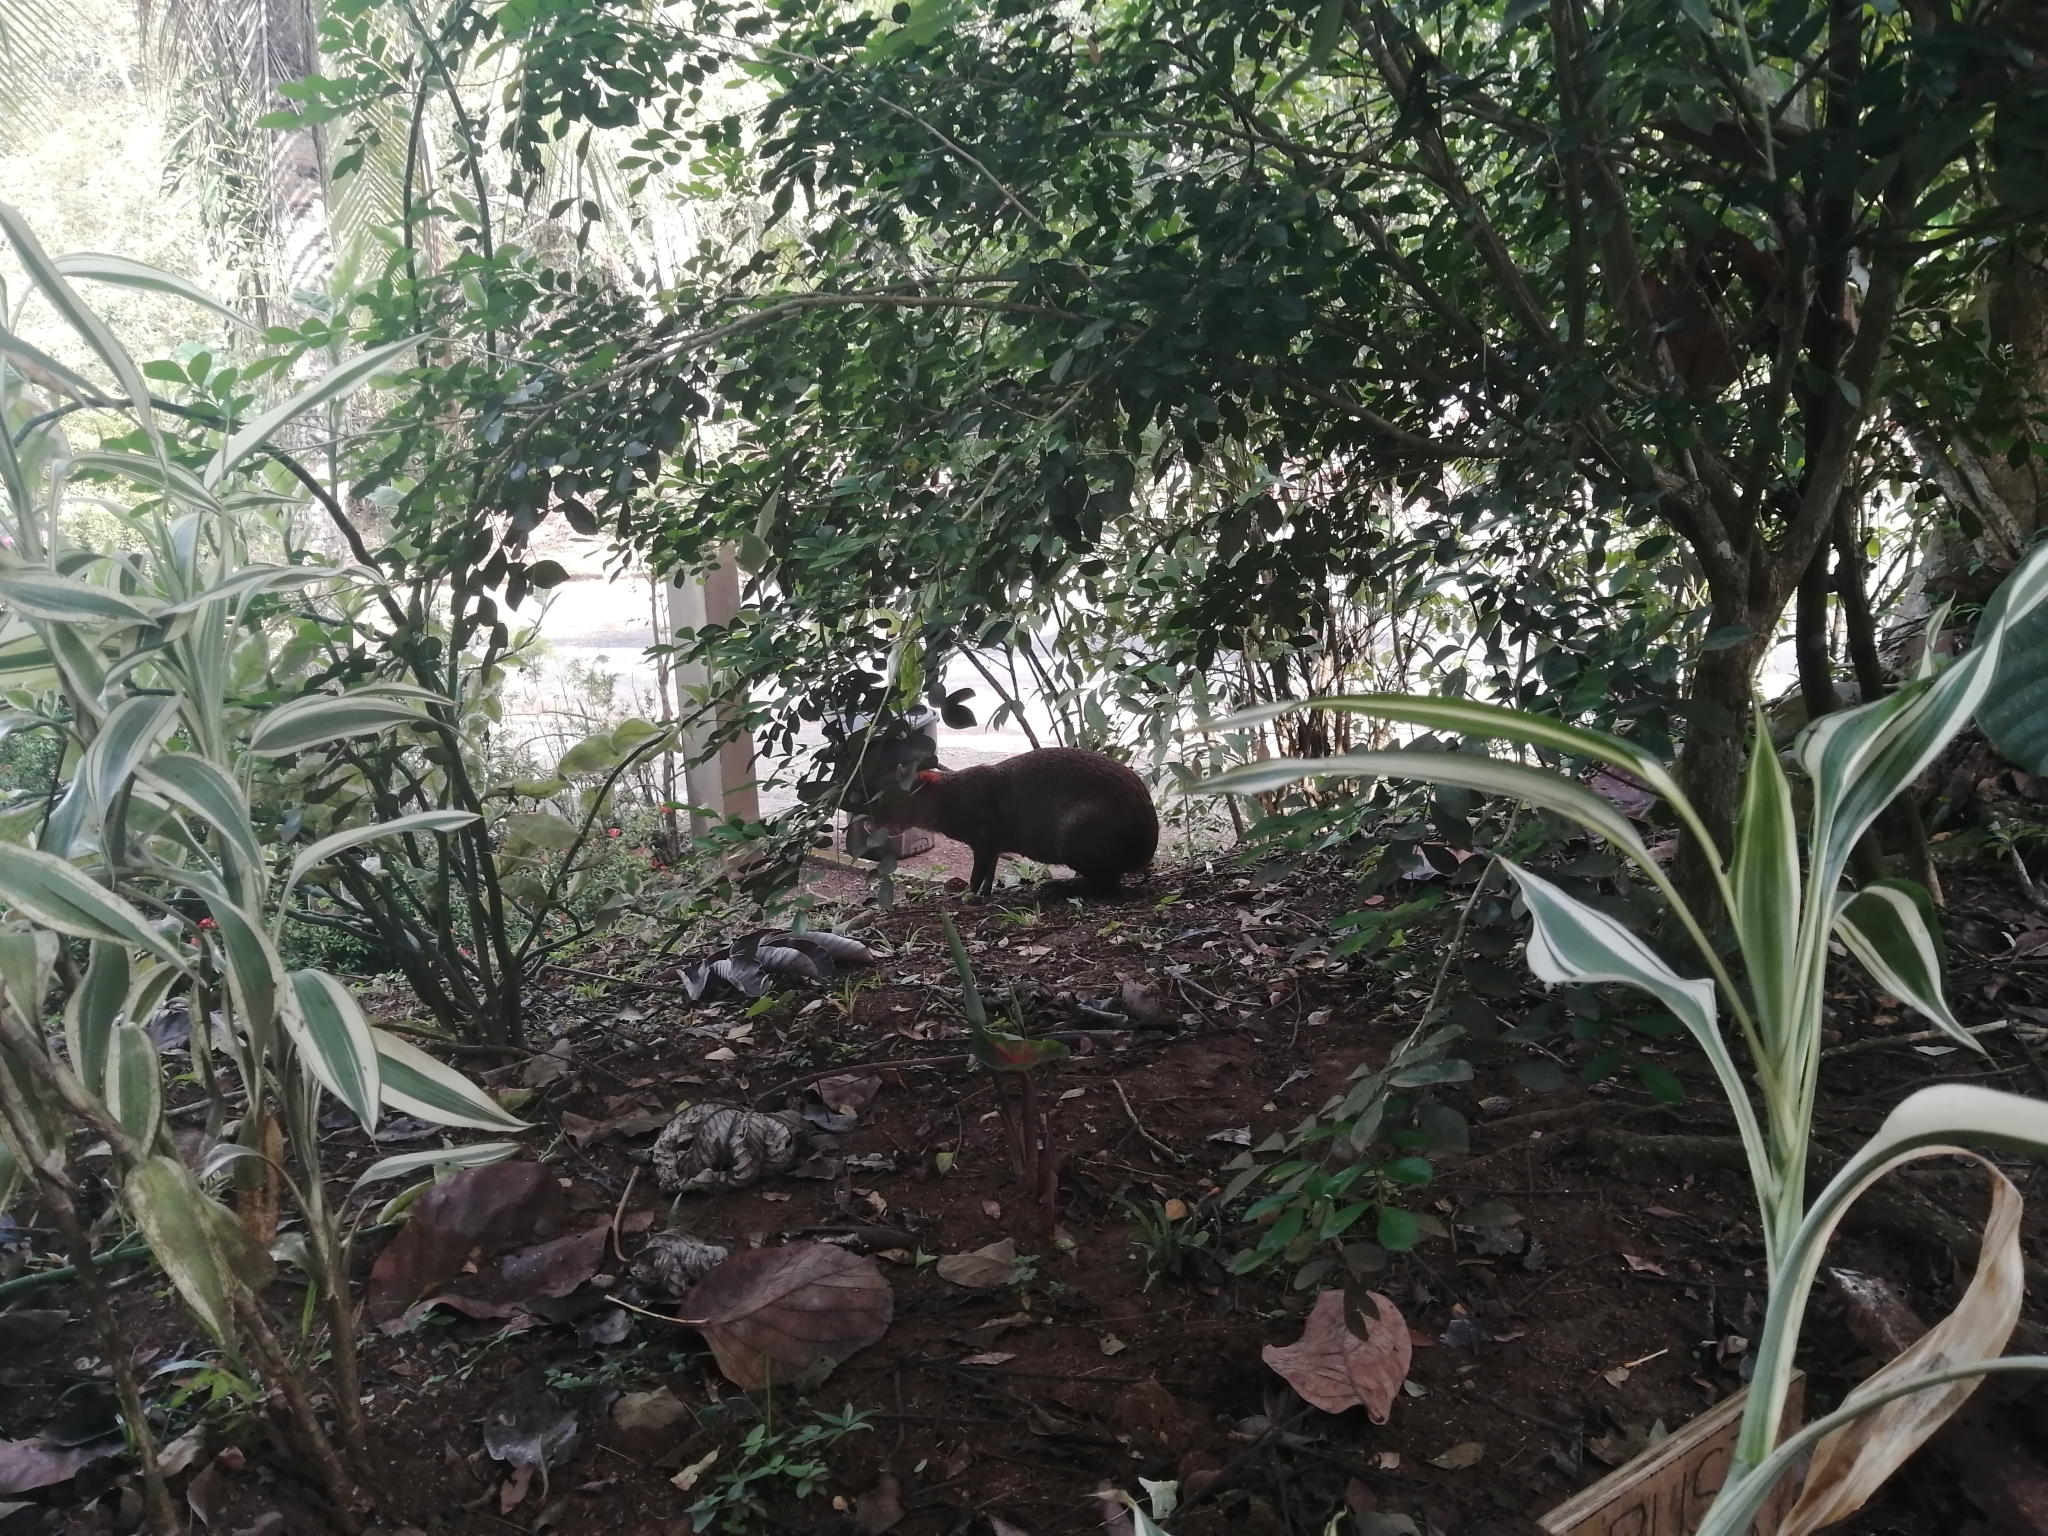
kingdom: Animalia
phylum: Chordata
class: Mammalia
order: Rodentia
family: Dasyproctidae
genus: Dasyprocta
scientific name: Dasyprocta punctata
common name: Central american agouti
